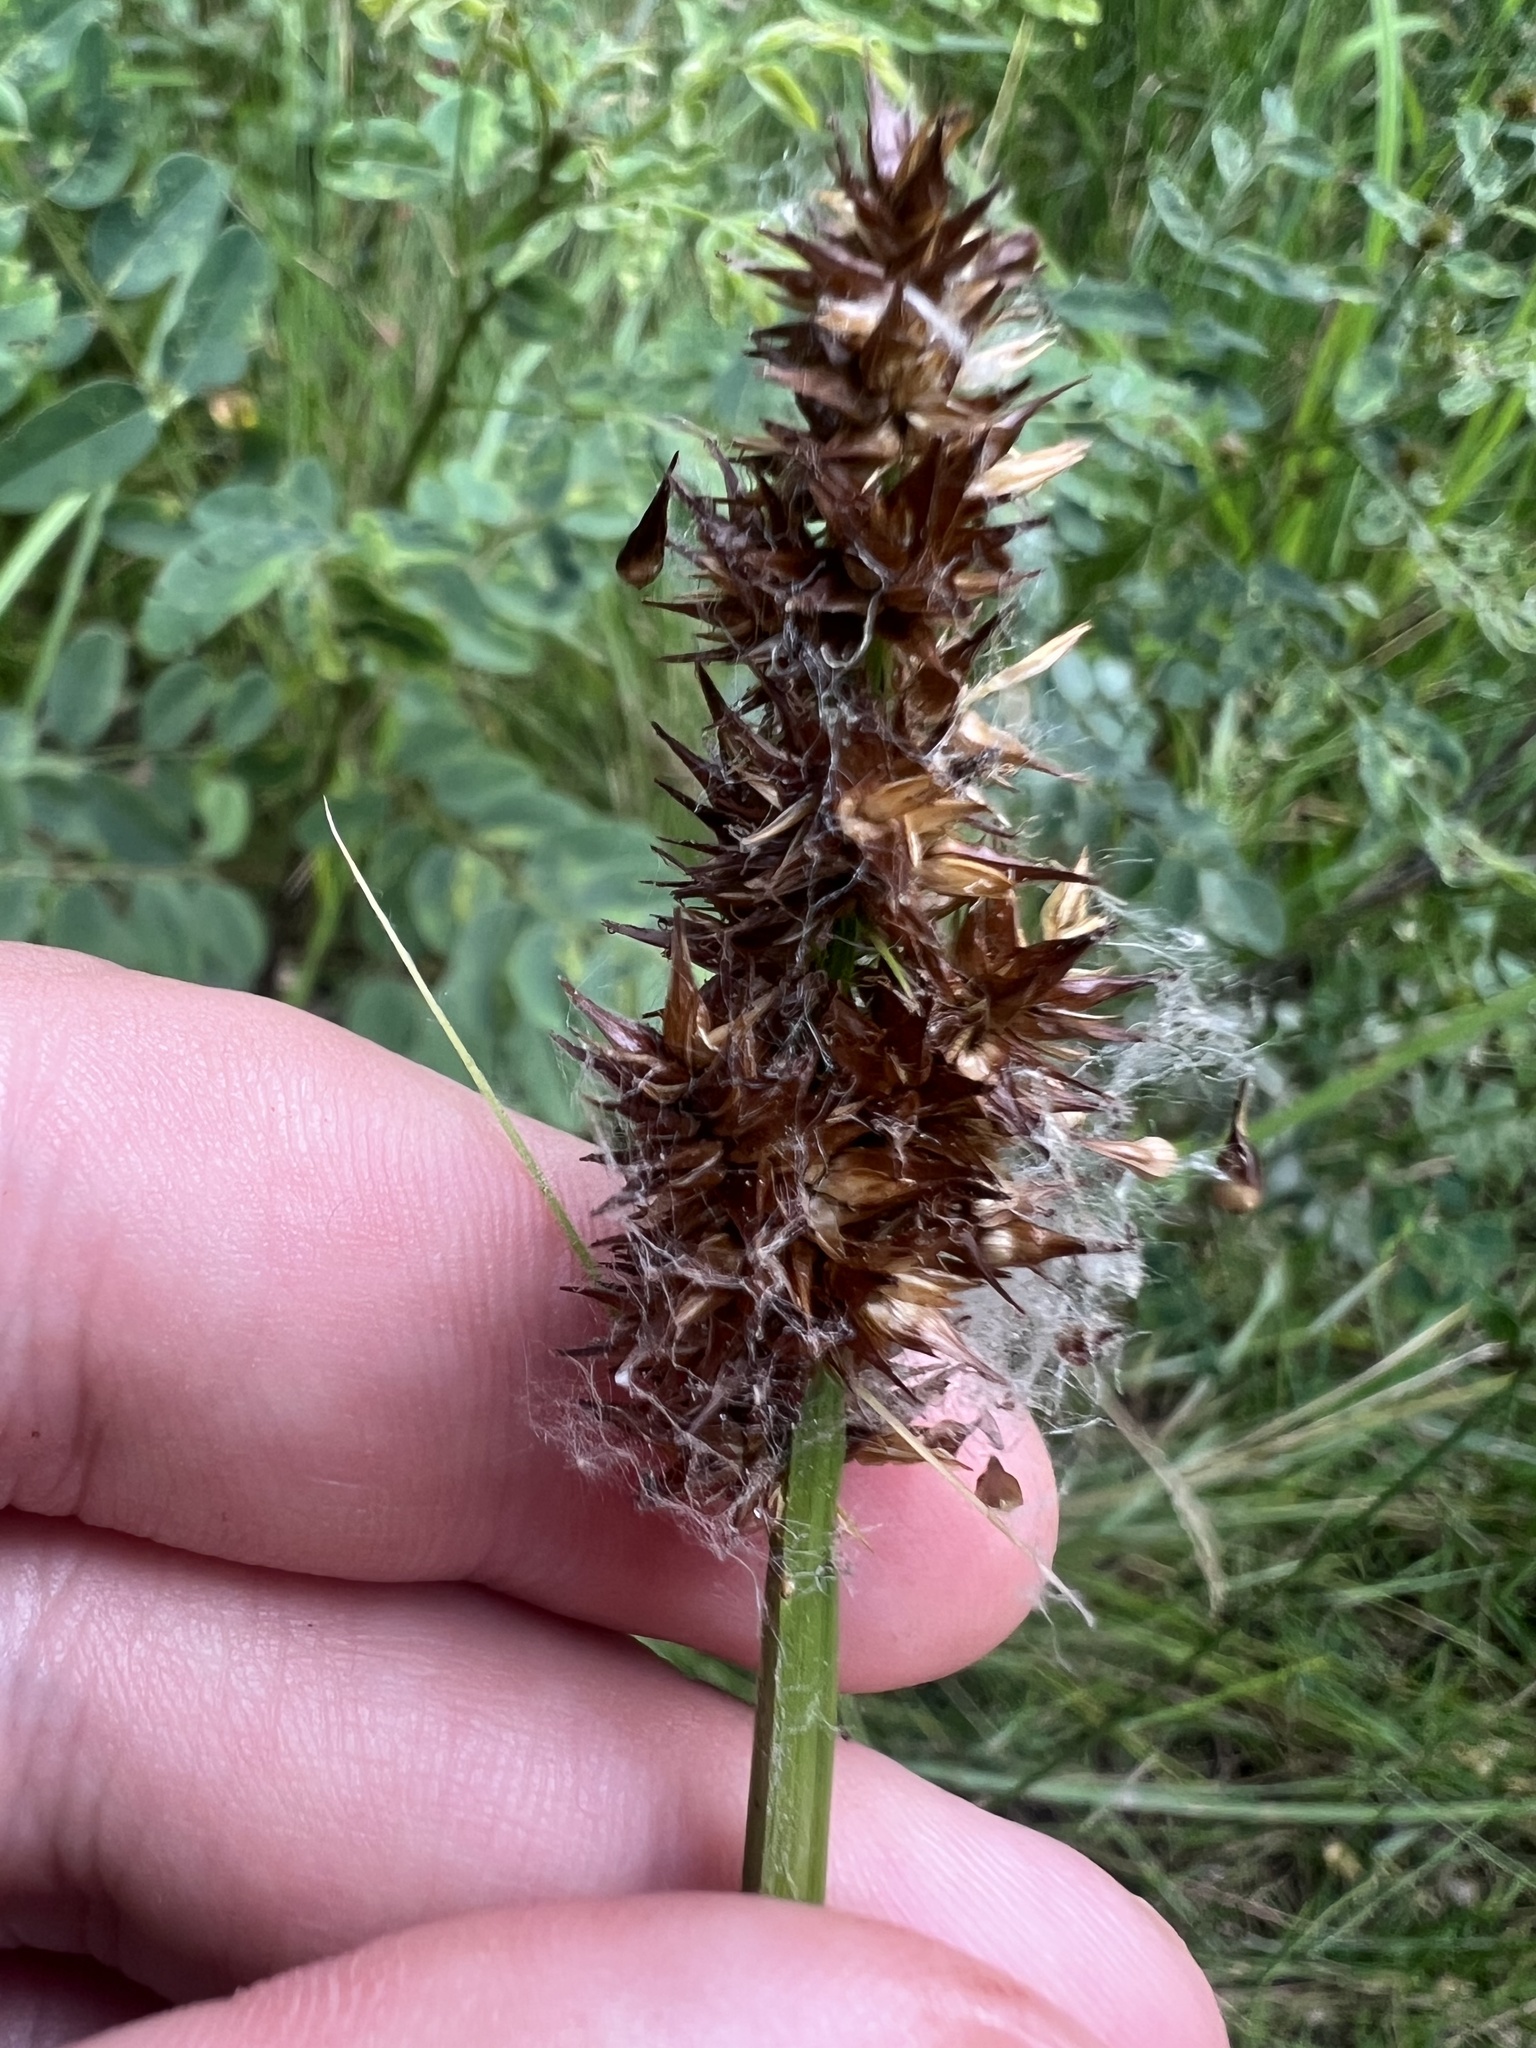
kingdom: Plantae
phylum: Tracheophyta
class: Liliopsida
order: Poales
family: Cyperaceae
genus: Carex
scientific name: Carex stipata
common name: Awl-fruited sedge
